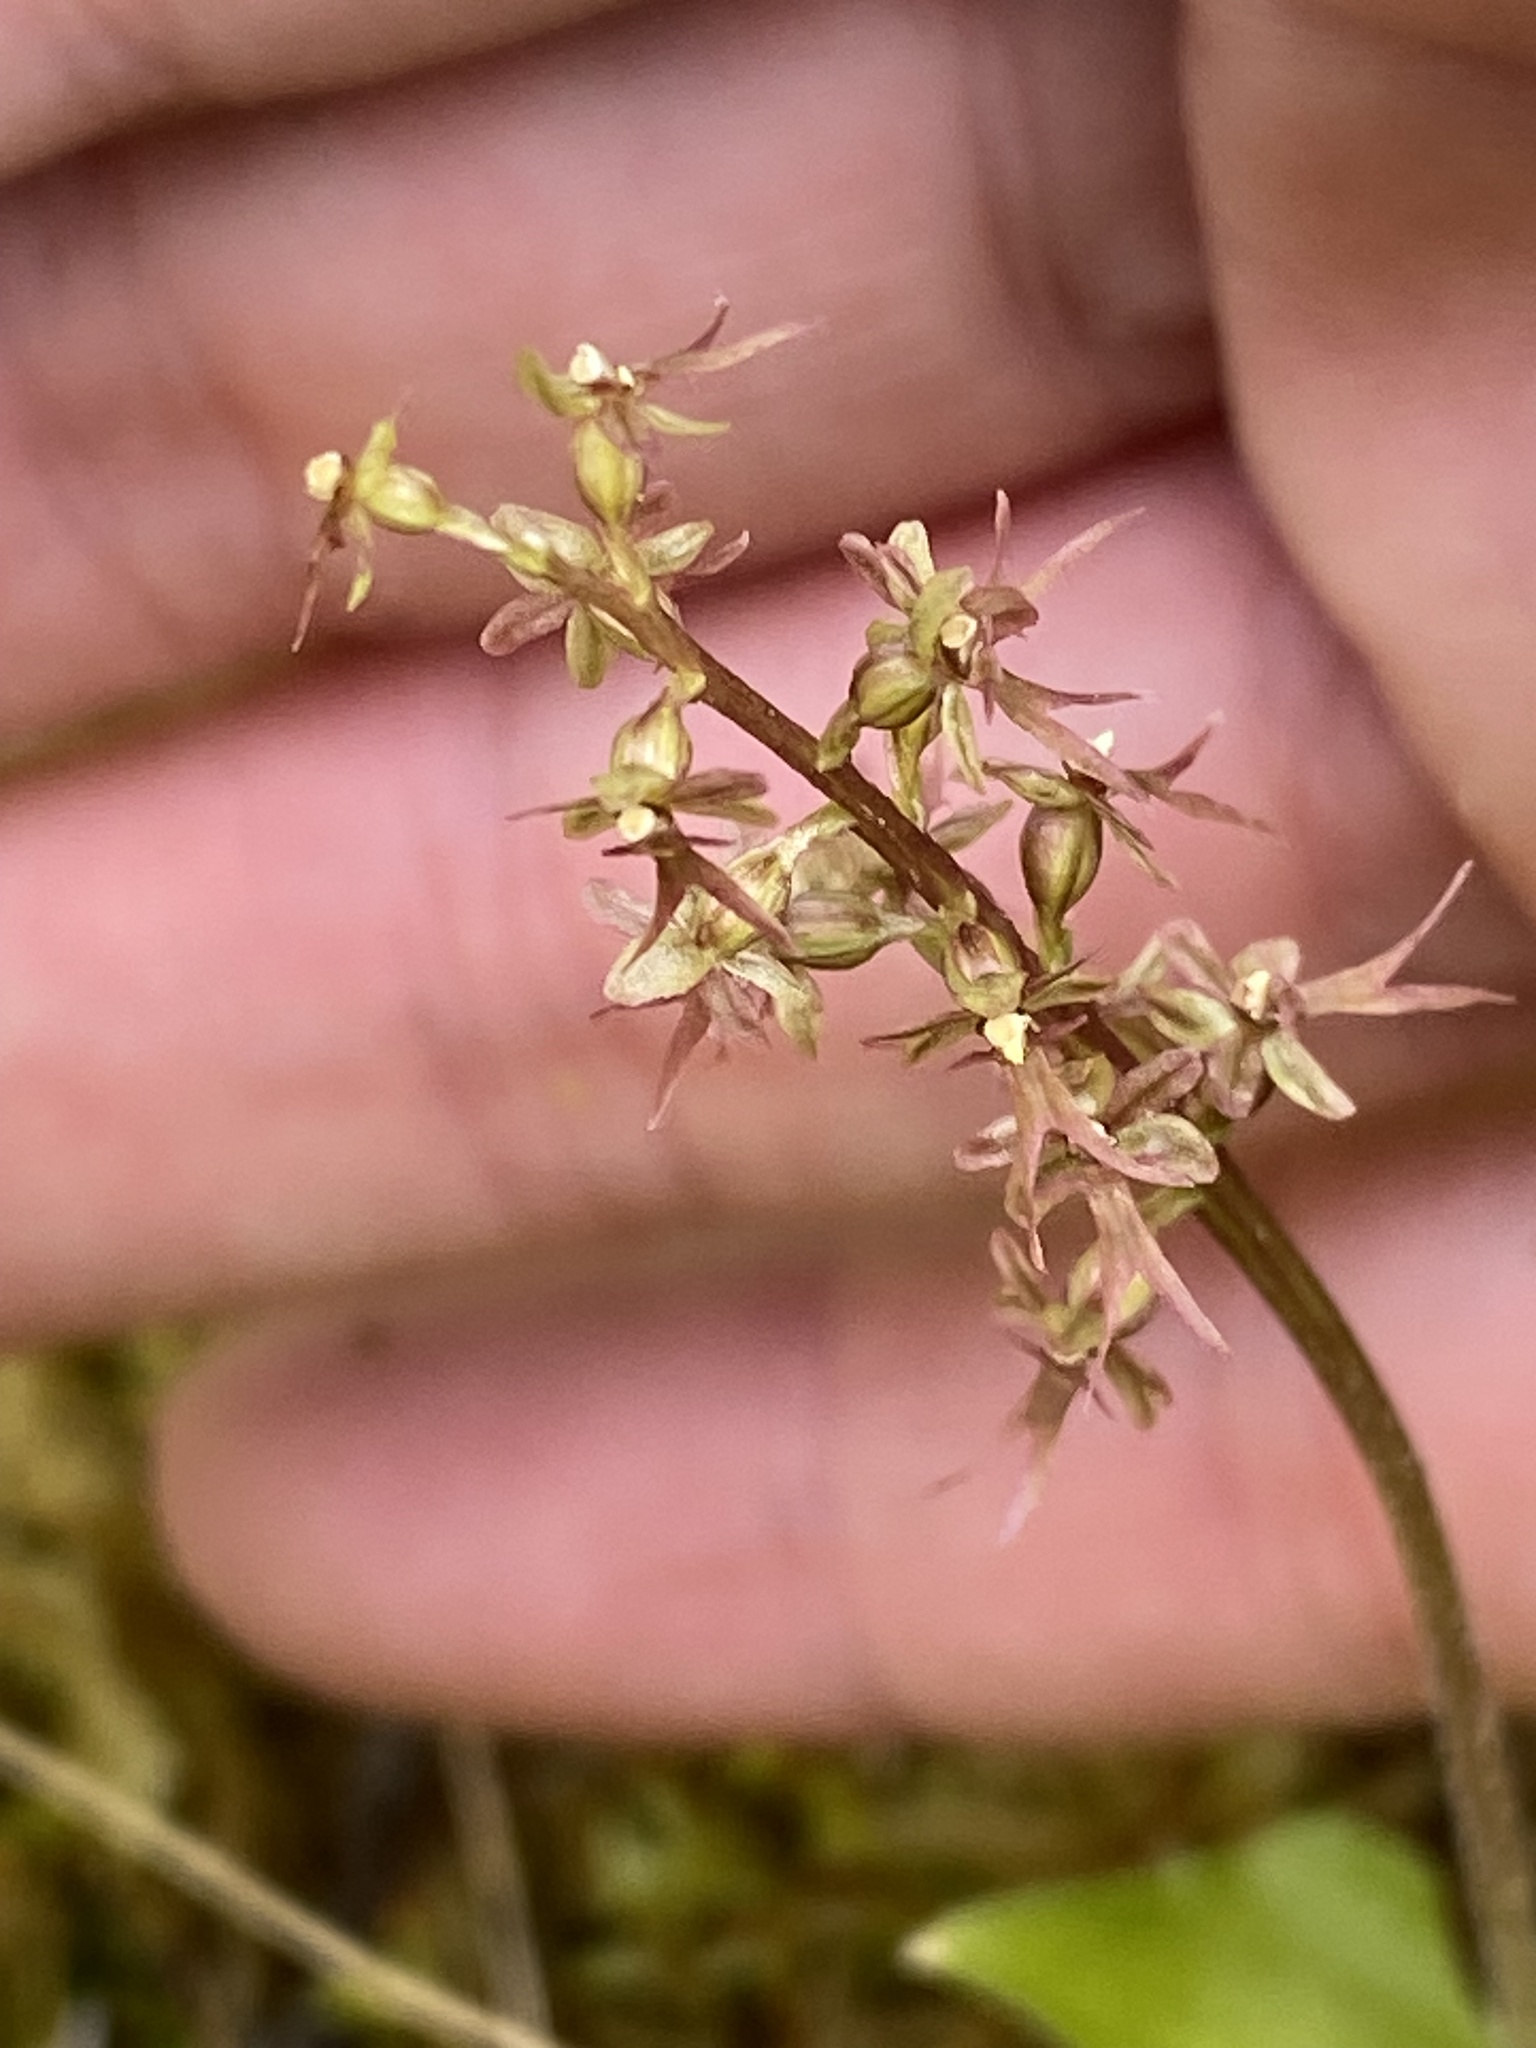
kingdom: Plantae
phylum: Tracheophyta
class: Liliopsida
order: Asparagales
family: Orchidaceae
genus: Neottia
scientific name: Neottia cordata
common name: Lesser twayblade
